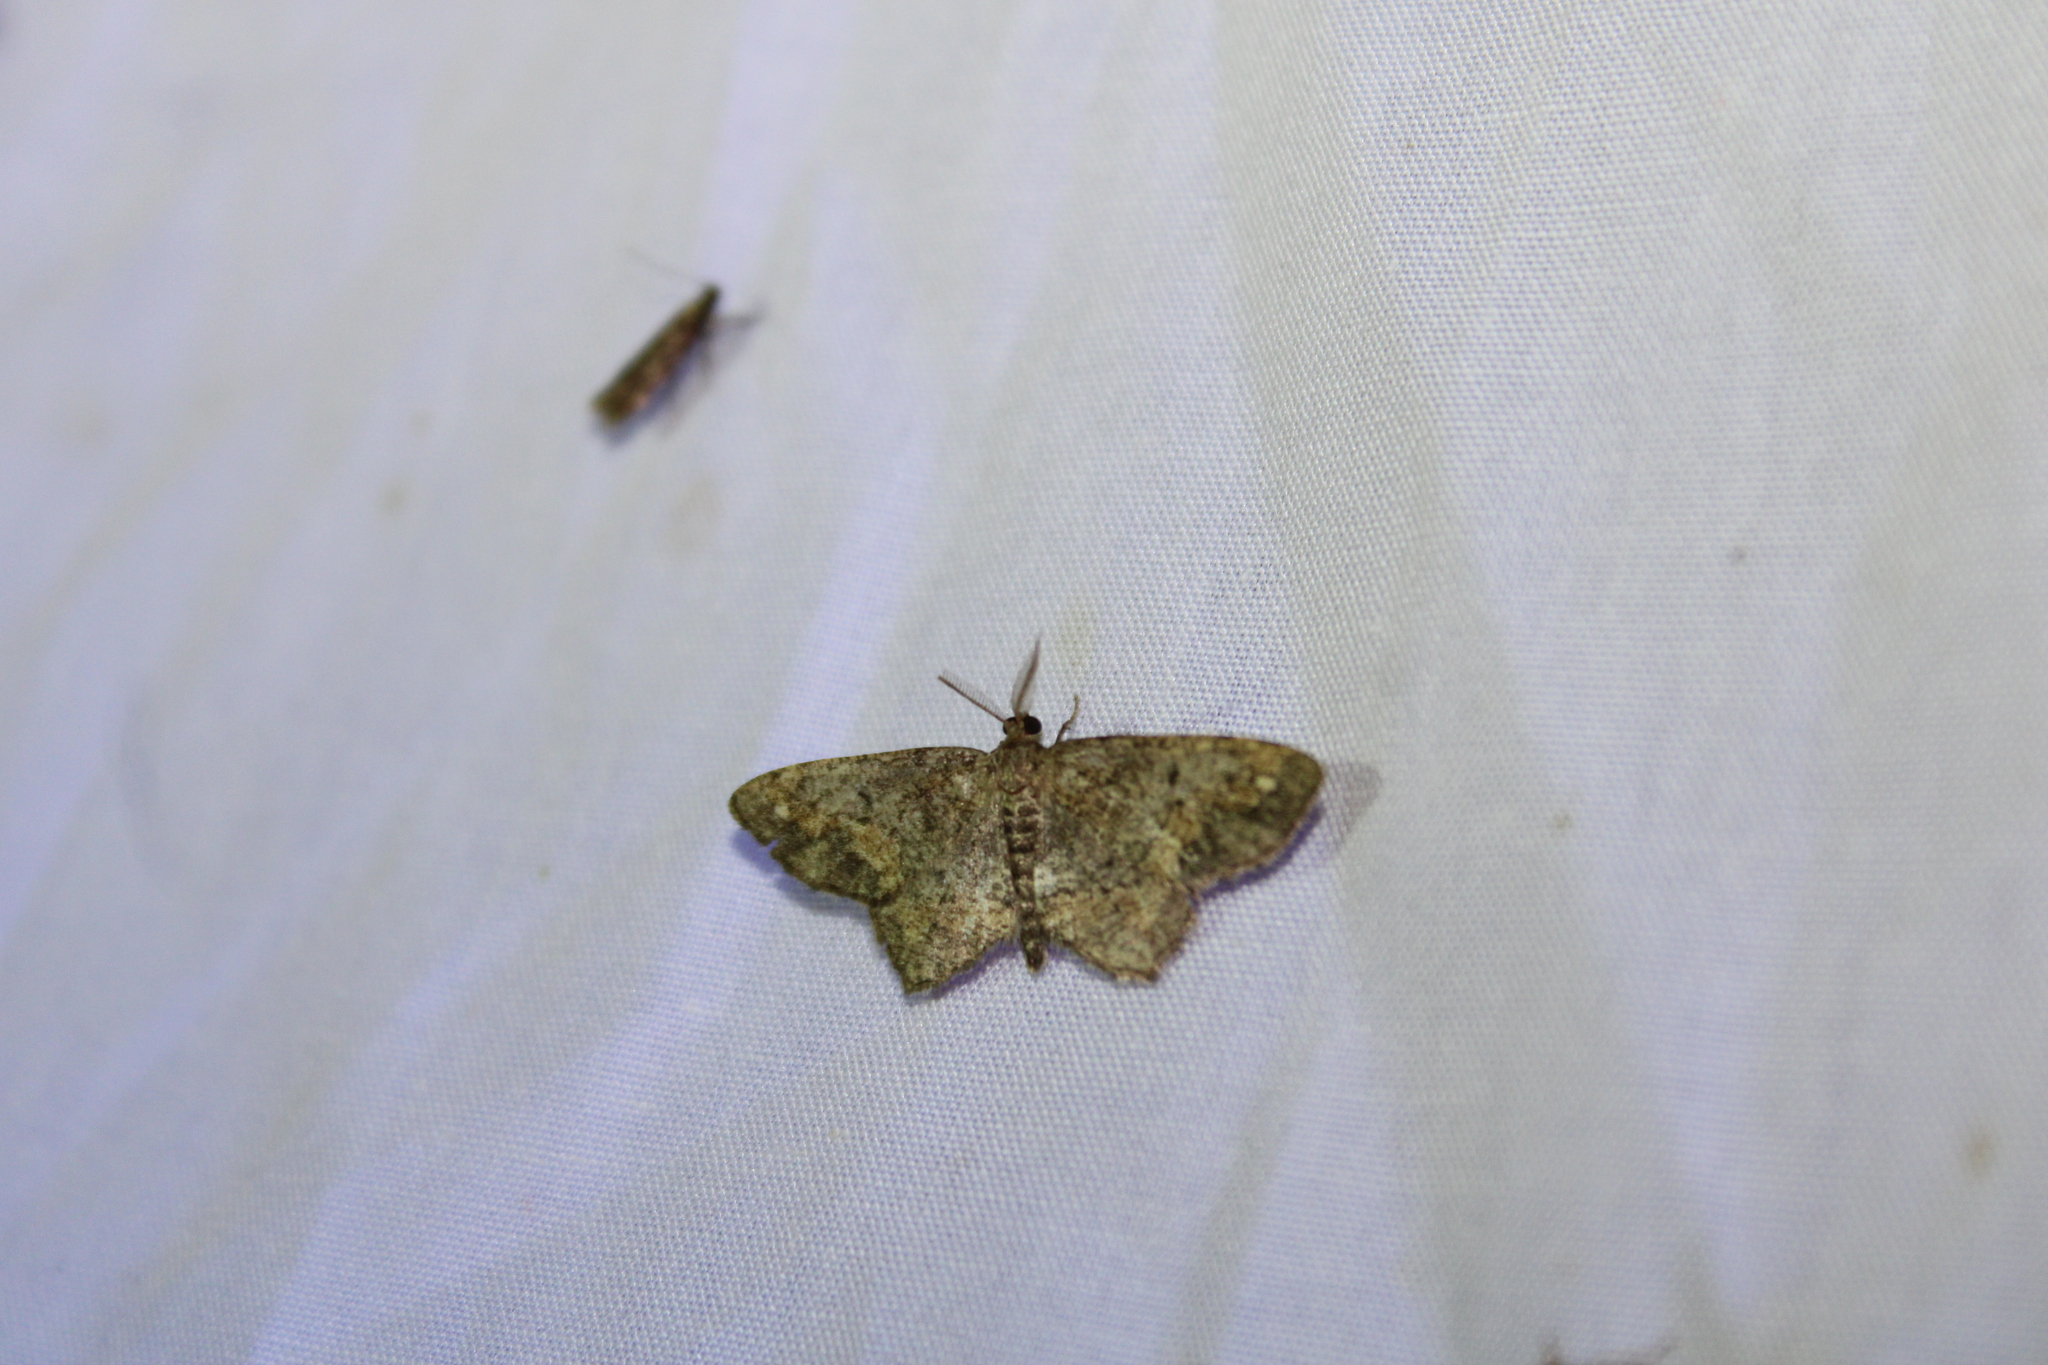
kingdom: Animalia
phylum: Arthropoda
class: Insecta
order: Lepidoptera
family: Geometridae
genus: Hypagyrtis
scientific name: Hypagyrtis unipunctata
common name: One-spotted variant
